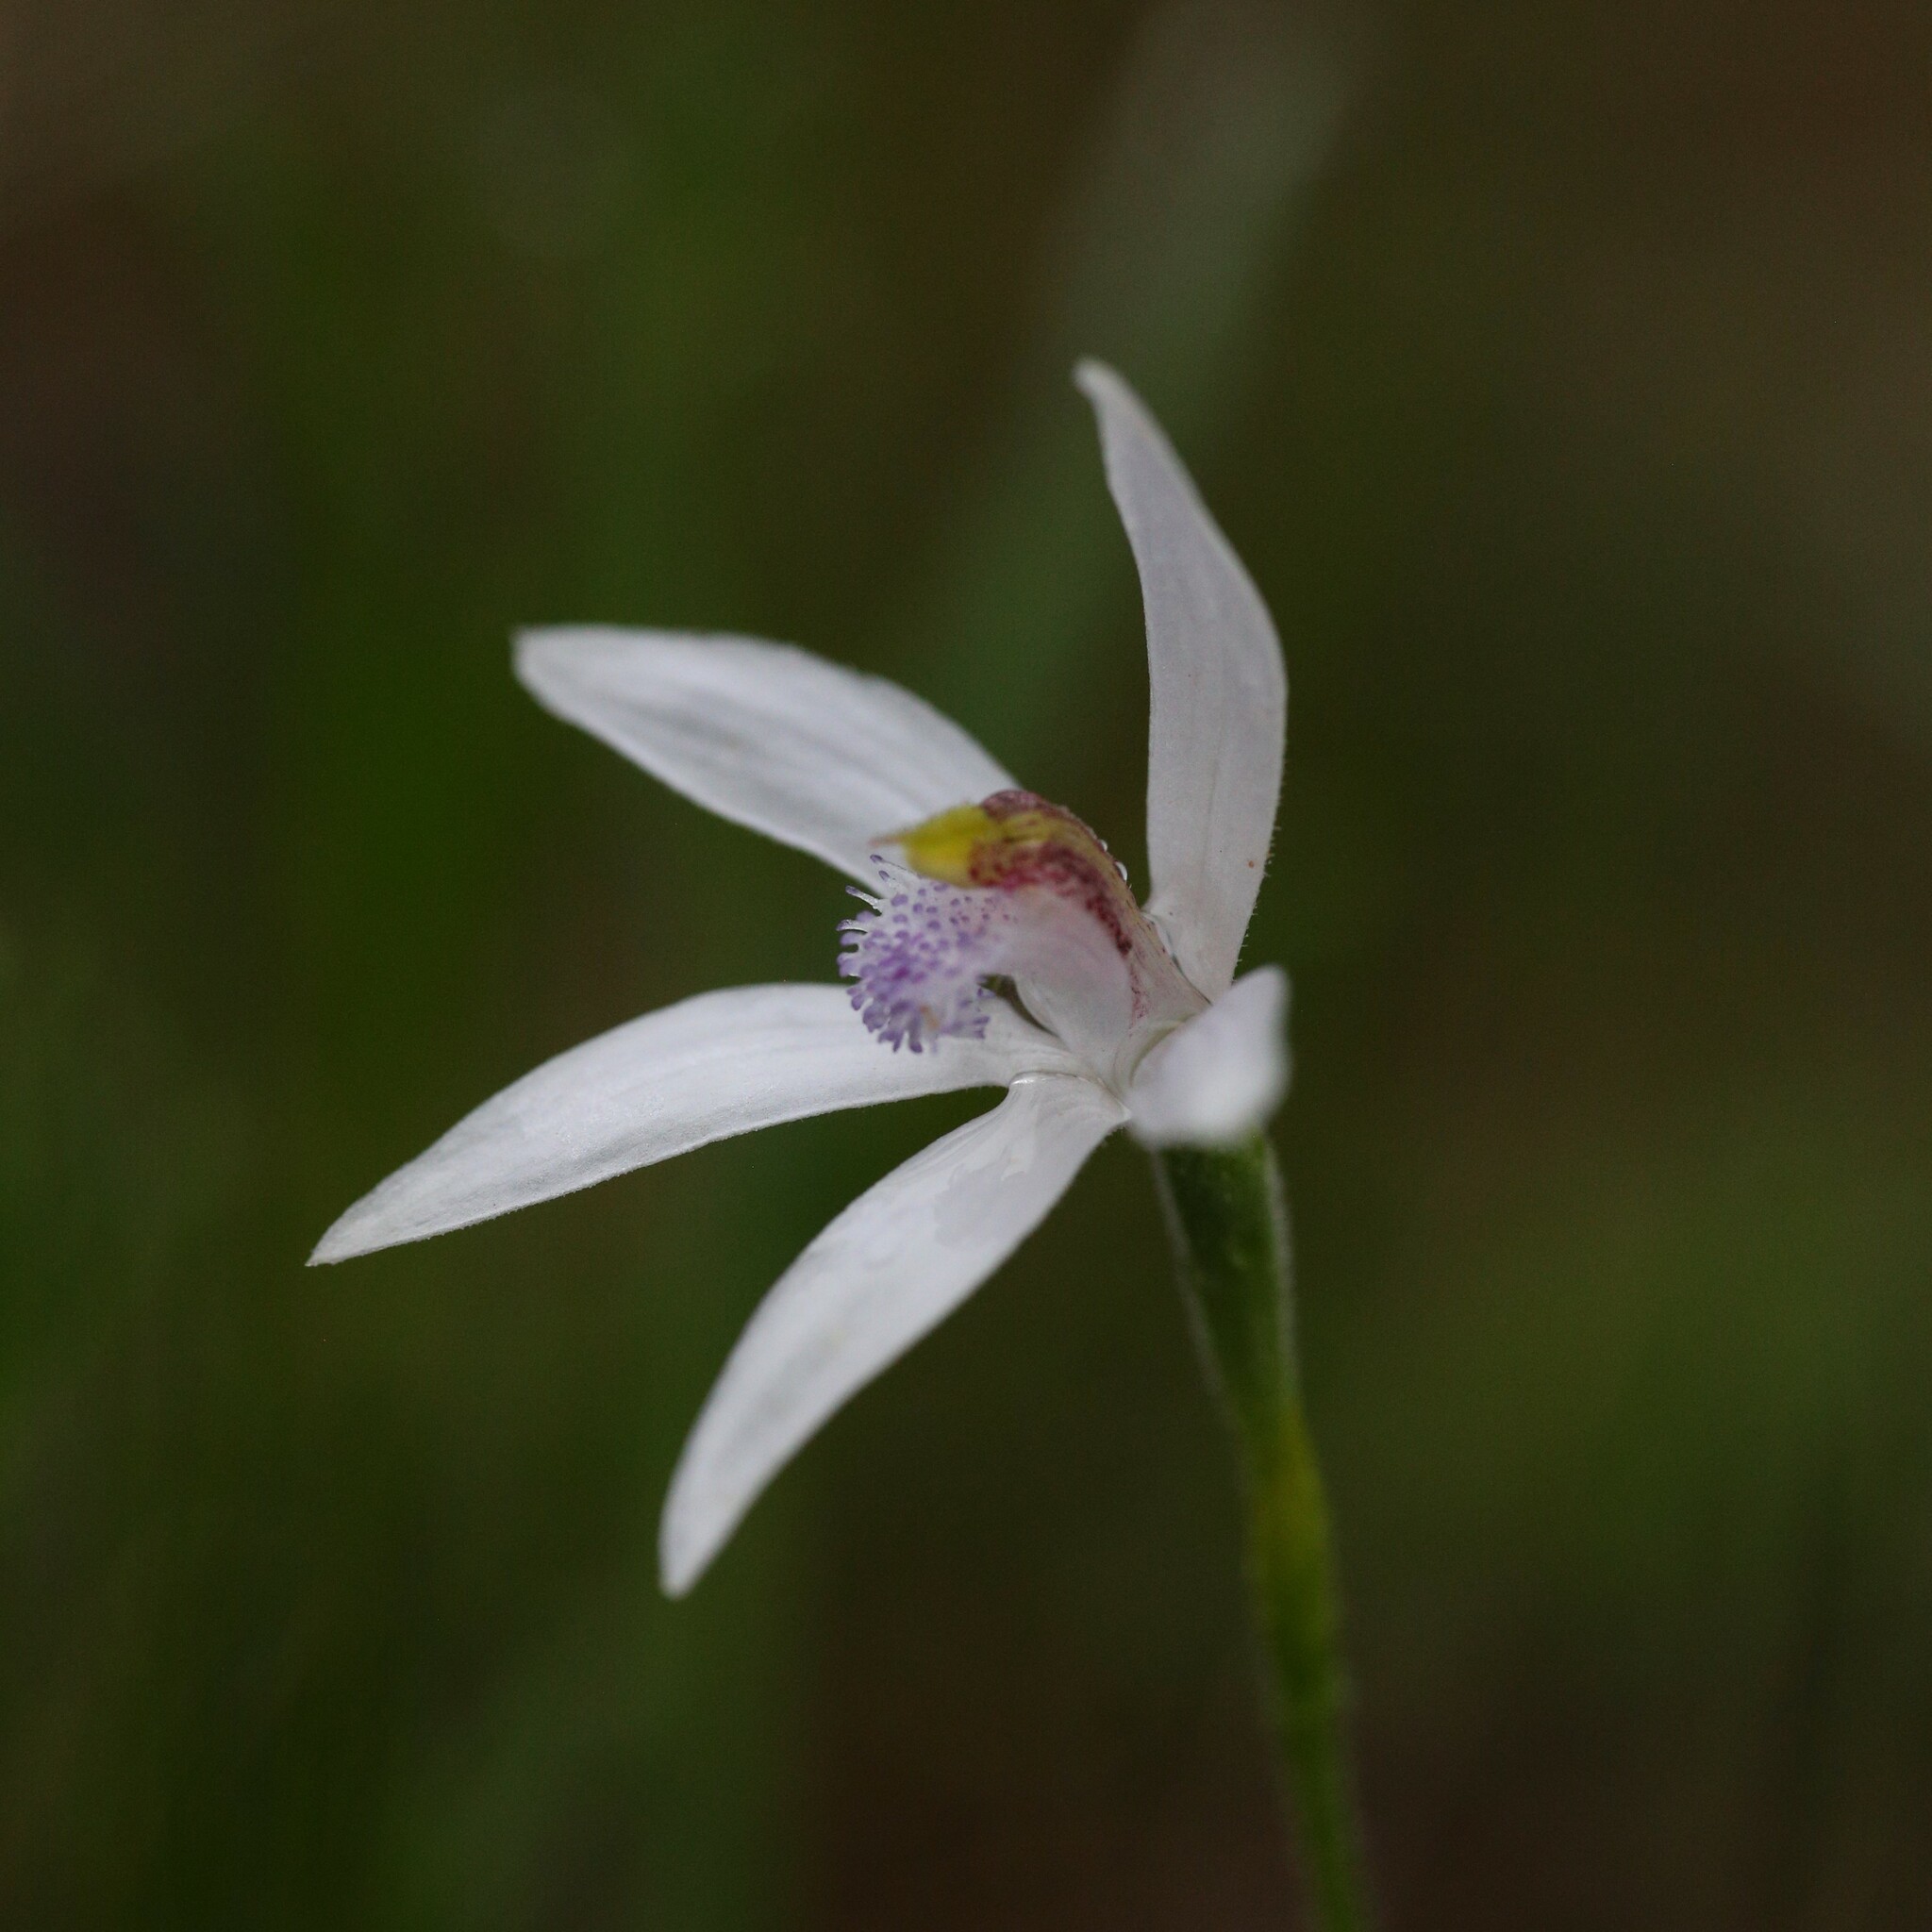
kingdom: Plantae
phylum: Tracheophyta
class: Liliopsida
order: Asparagales
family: Orchidaceae
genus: Pheladenia
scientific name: Pheladenia deformis
